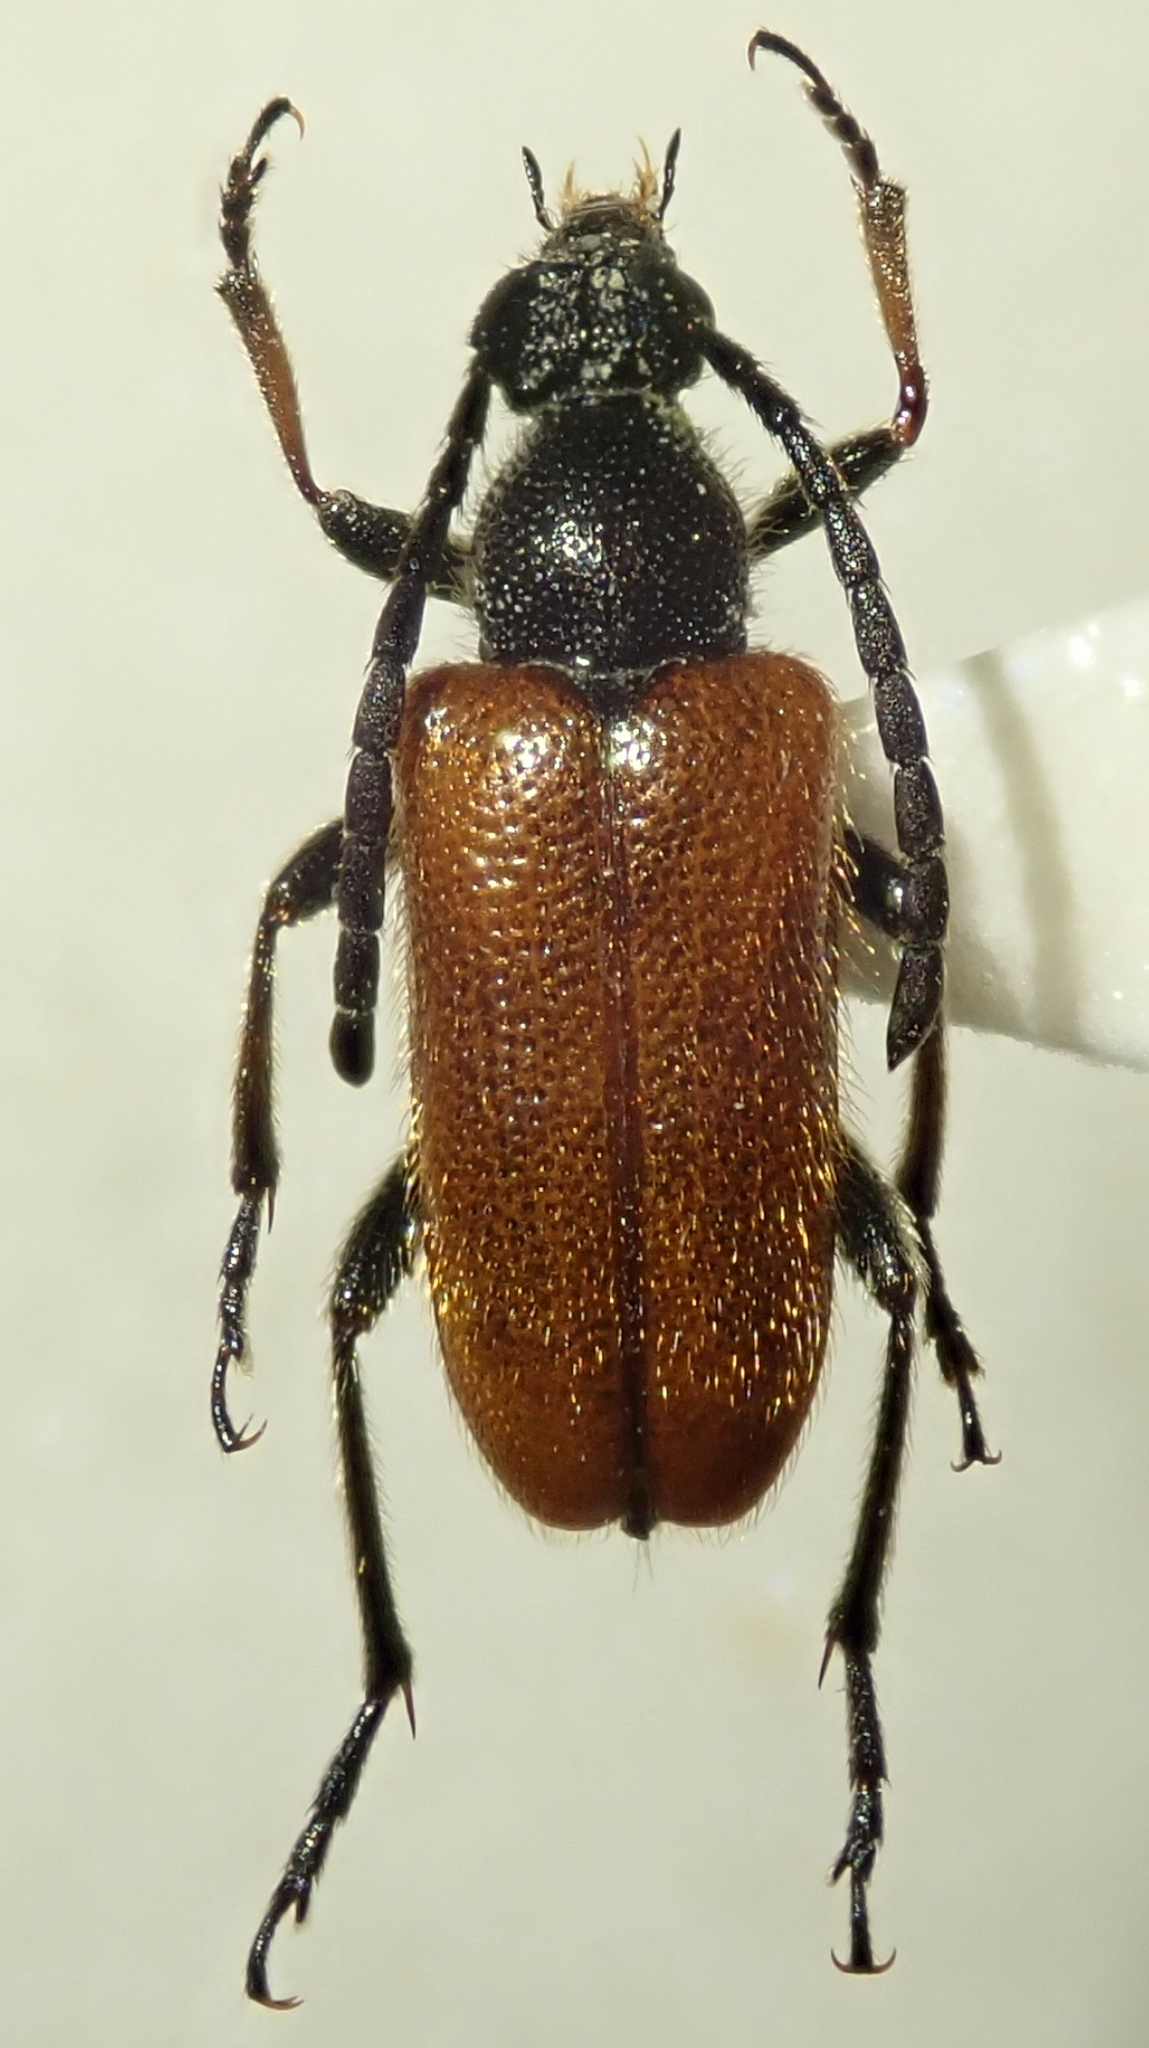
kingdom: Animalia
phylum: Arthropoda
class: Insecta
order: Coleoptera
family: Cerambycidae
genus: Pseudovadonia
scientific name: Pseudovadonia livida
